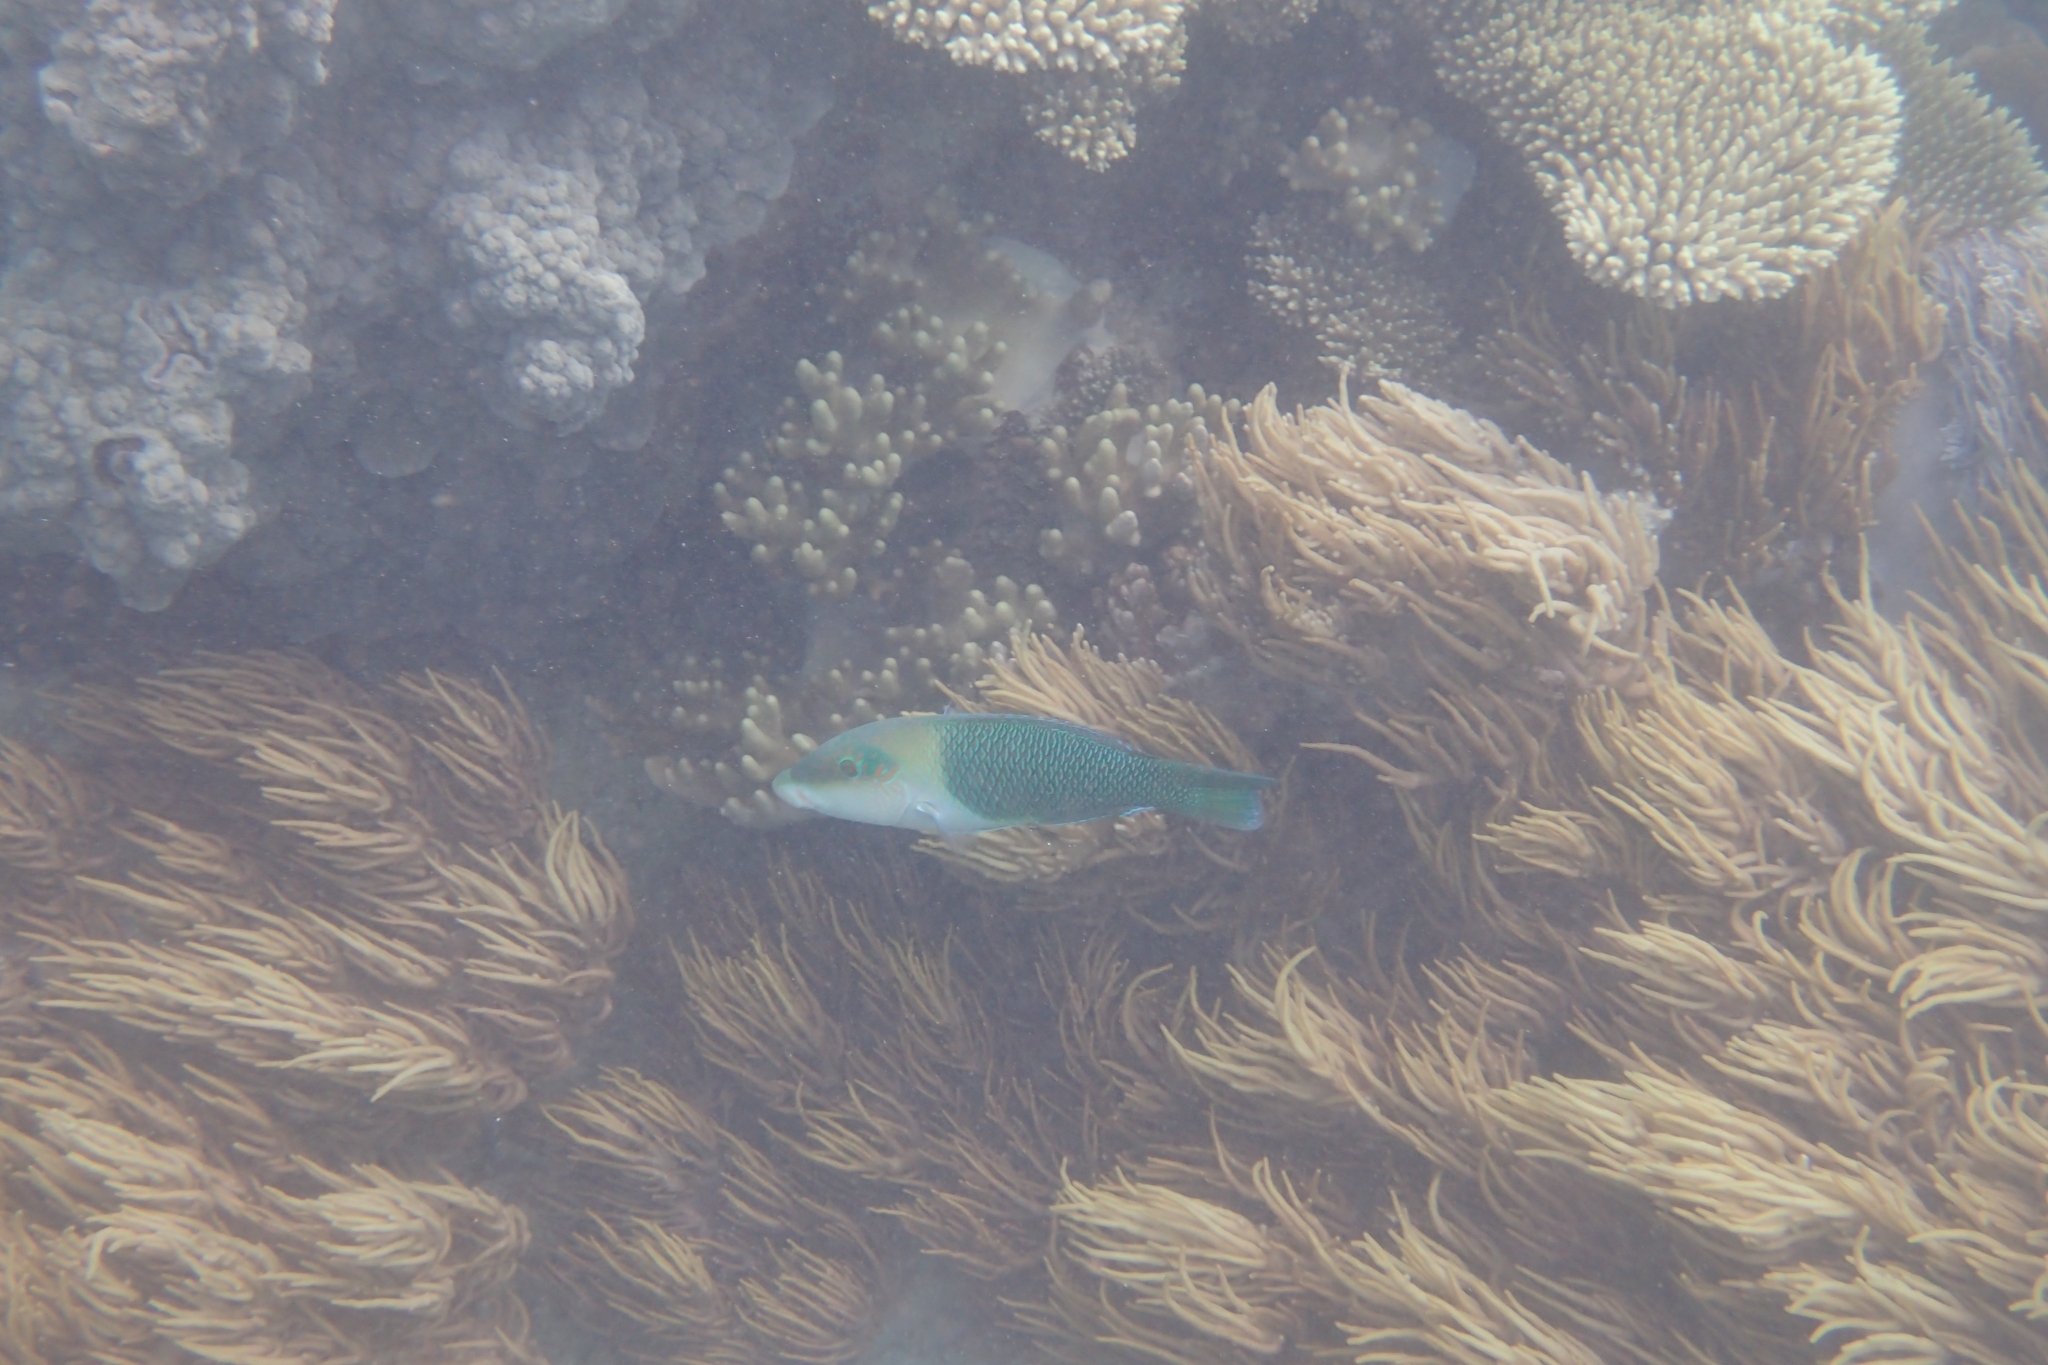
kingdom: Animalia
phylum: Chordata
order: Perciformes
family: Labridae
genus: Hemigymnus
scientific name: Hemigymnus melapterus
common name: Blackeye thicklip
